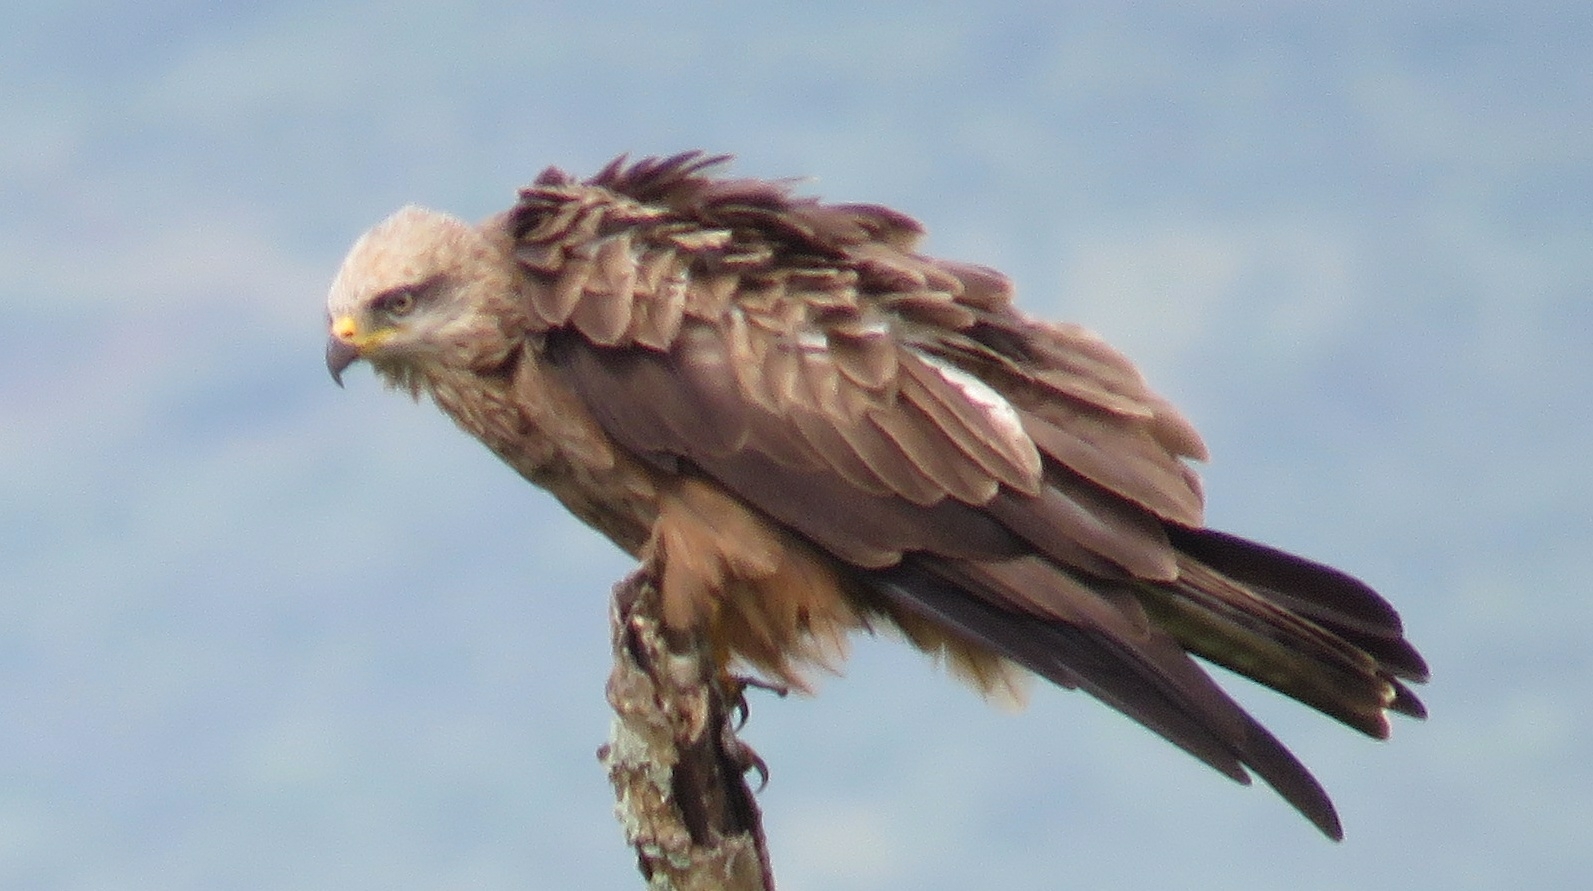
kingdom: Animalia
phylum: Chordata
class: Aves
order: Accipitriformes
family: Accipitridae
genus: Milvus
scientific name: Milvus migrans
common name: Black kite
